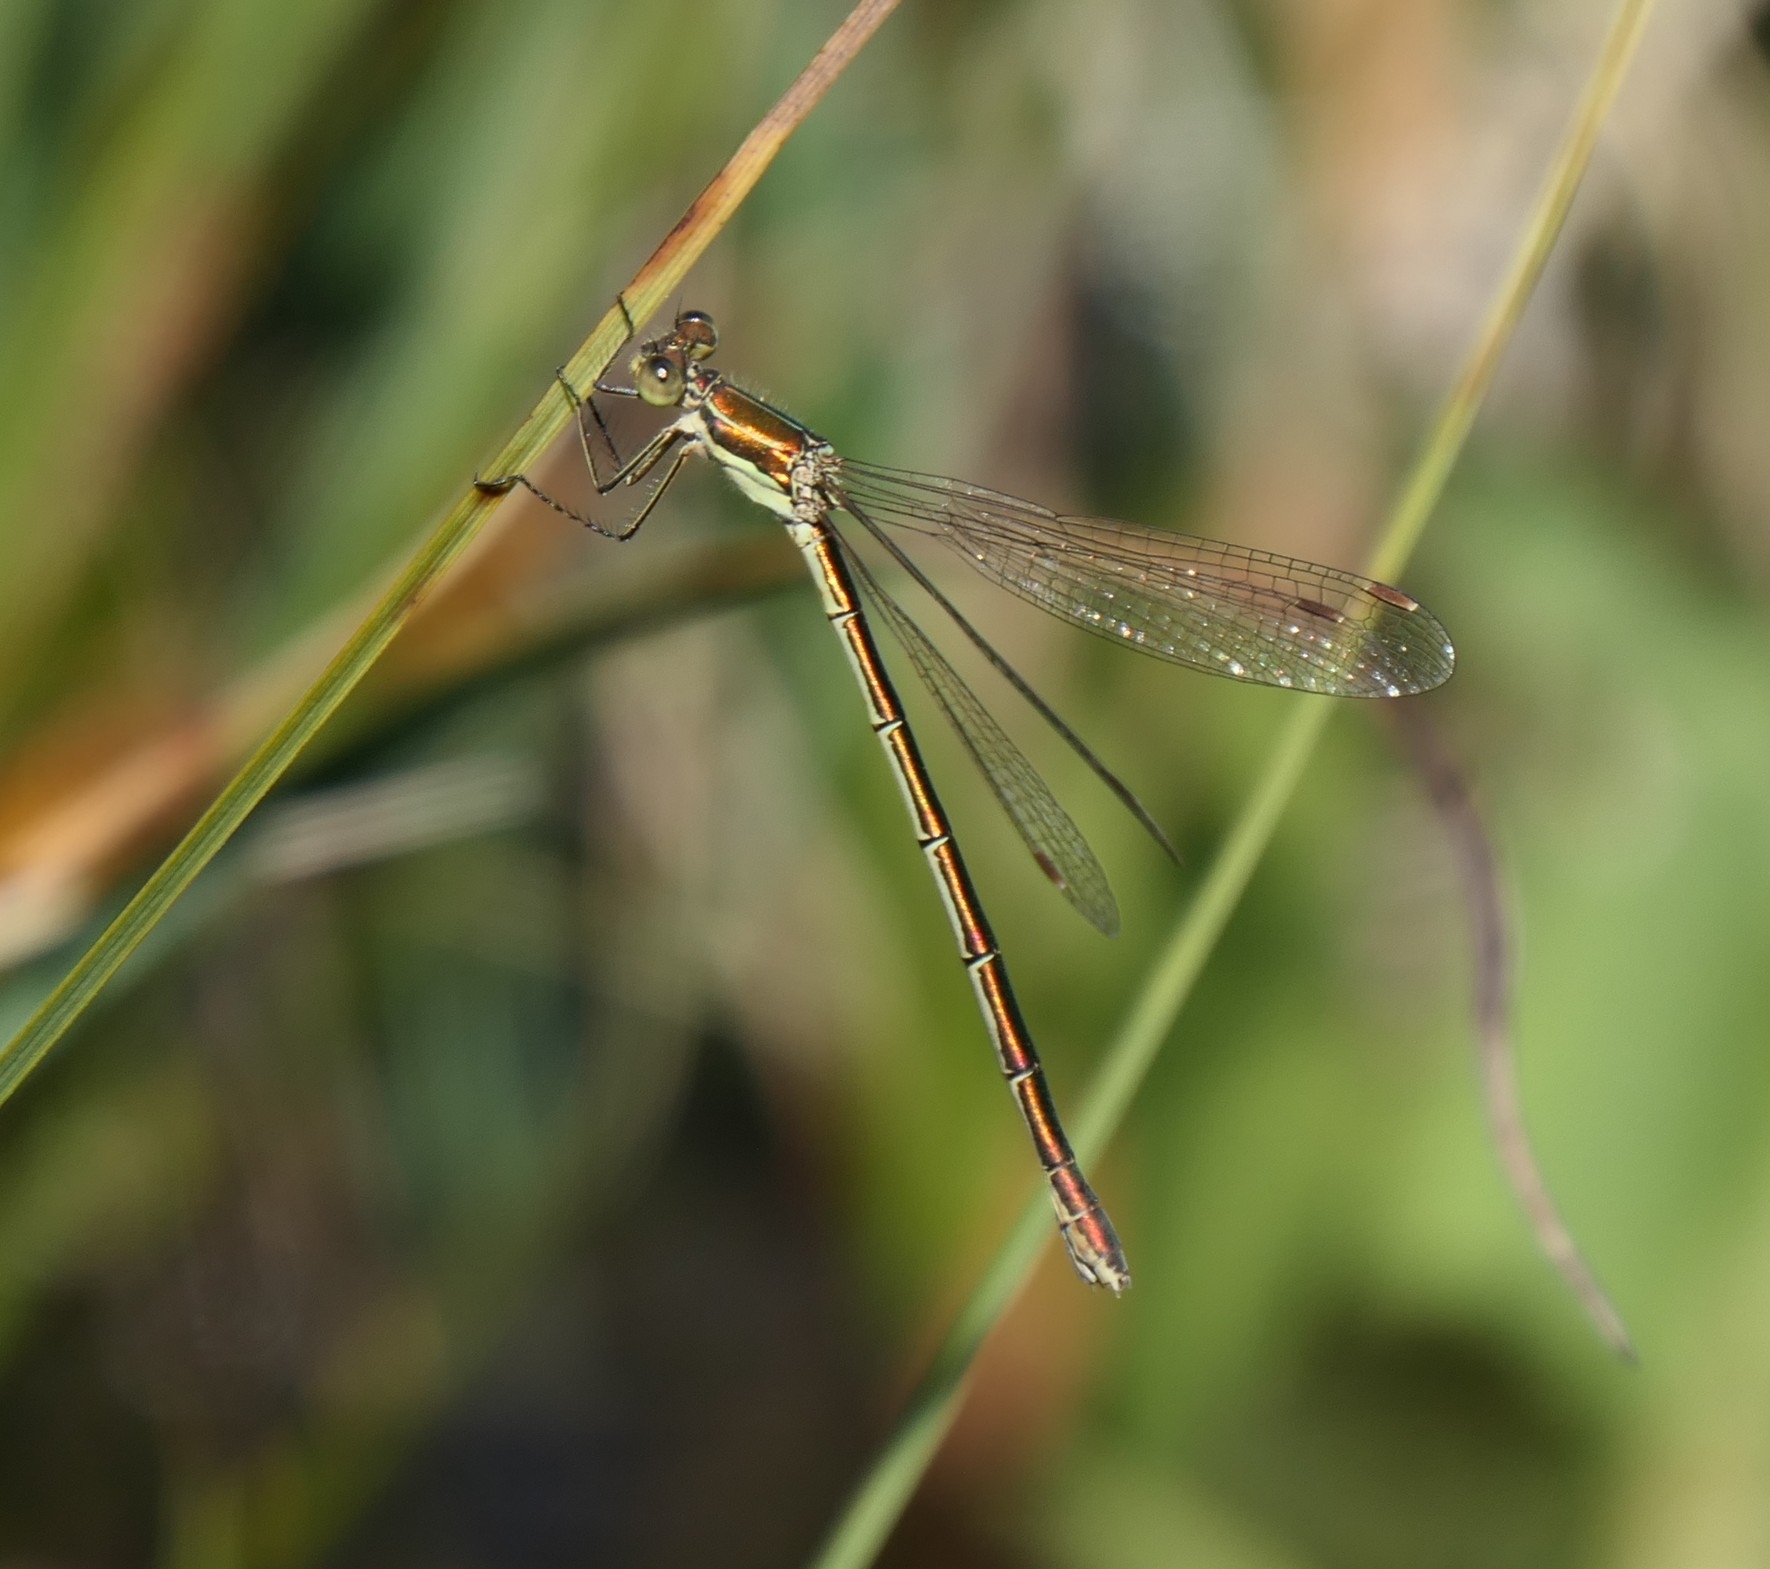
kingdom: Animalia
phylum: Arthropoda
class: Insecta
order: Odonata
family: Lestidae
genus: Lestes
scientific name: Lestes virens
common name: Small emerald spreadwing
